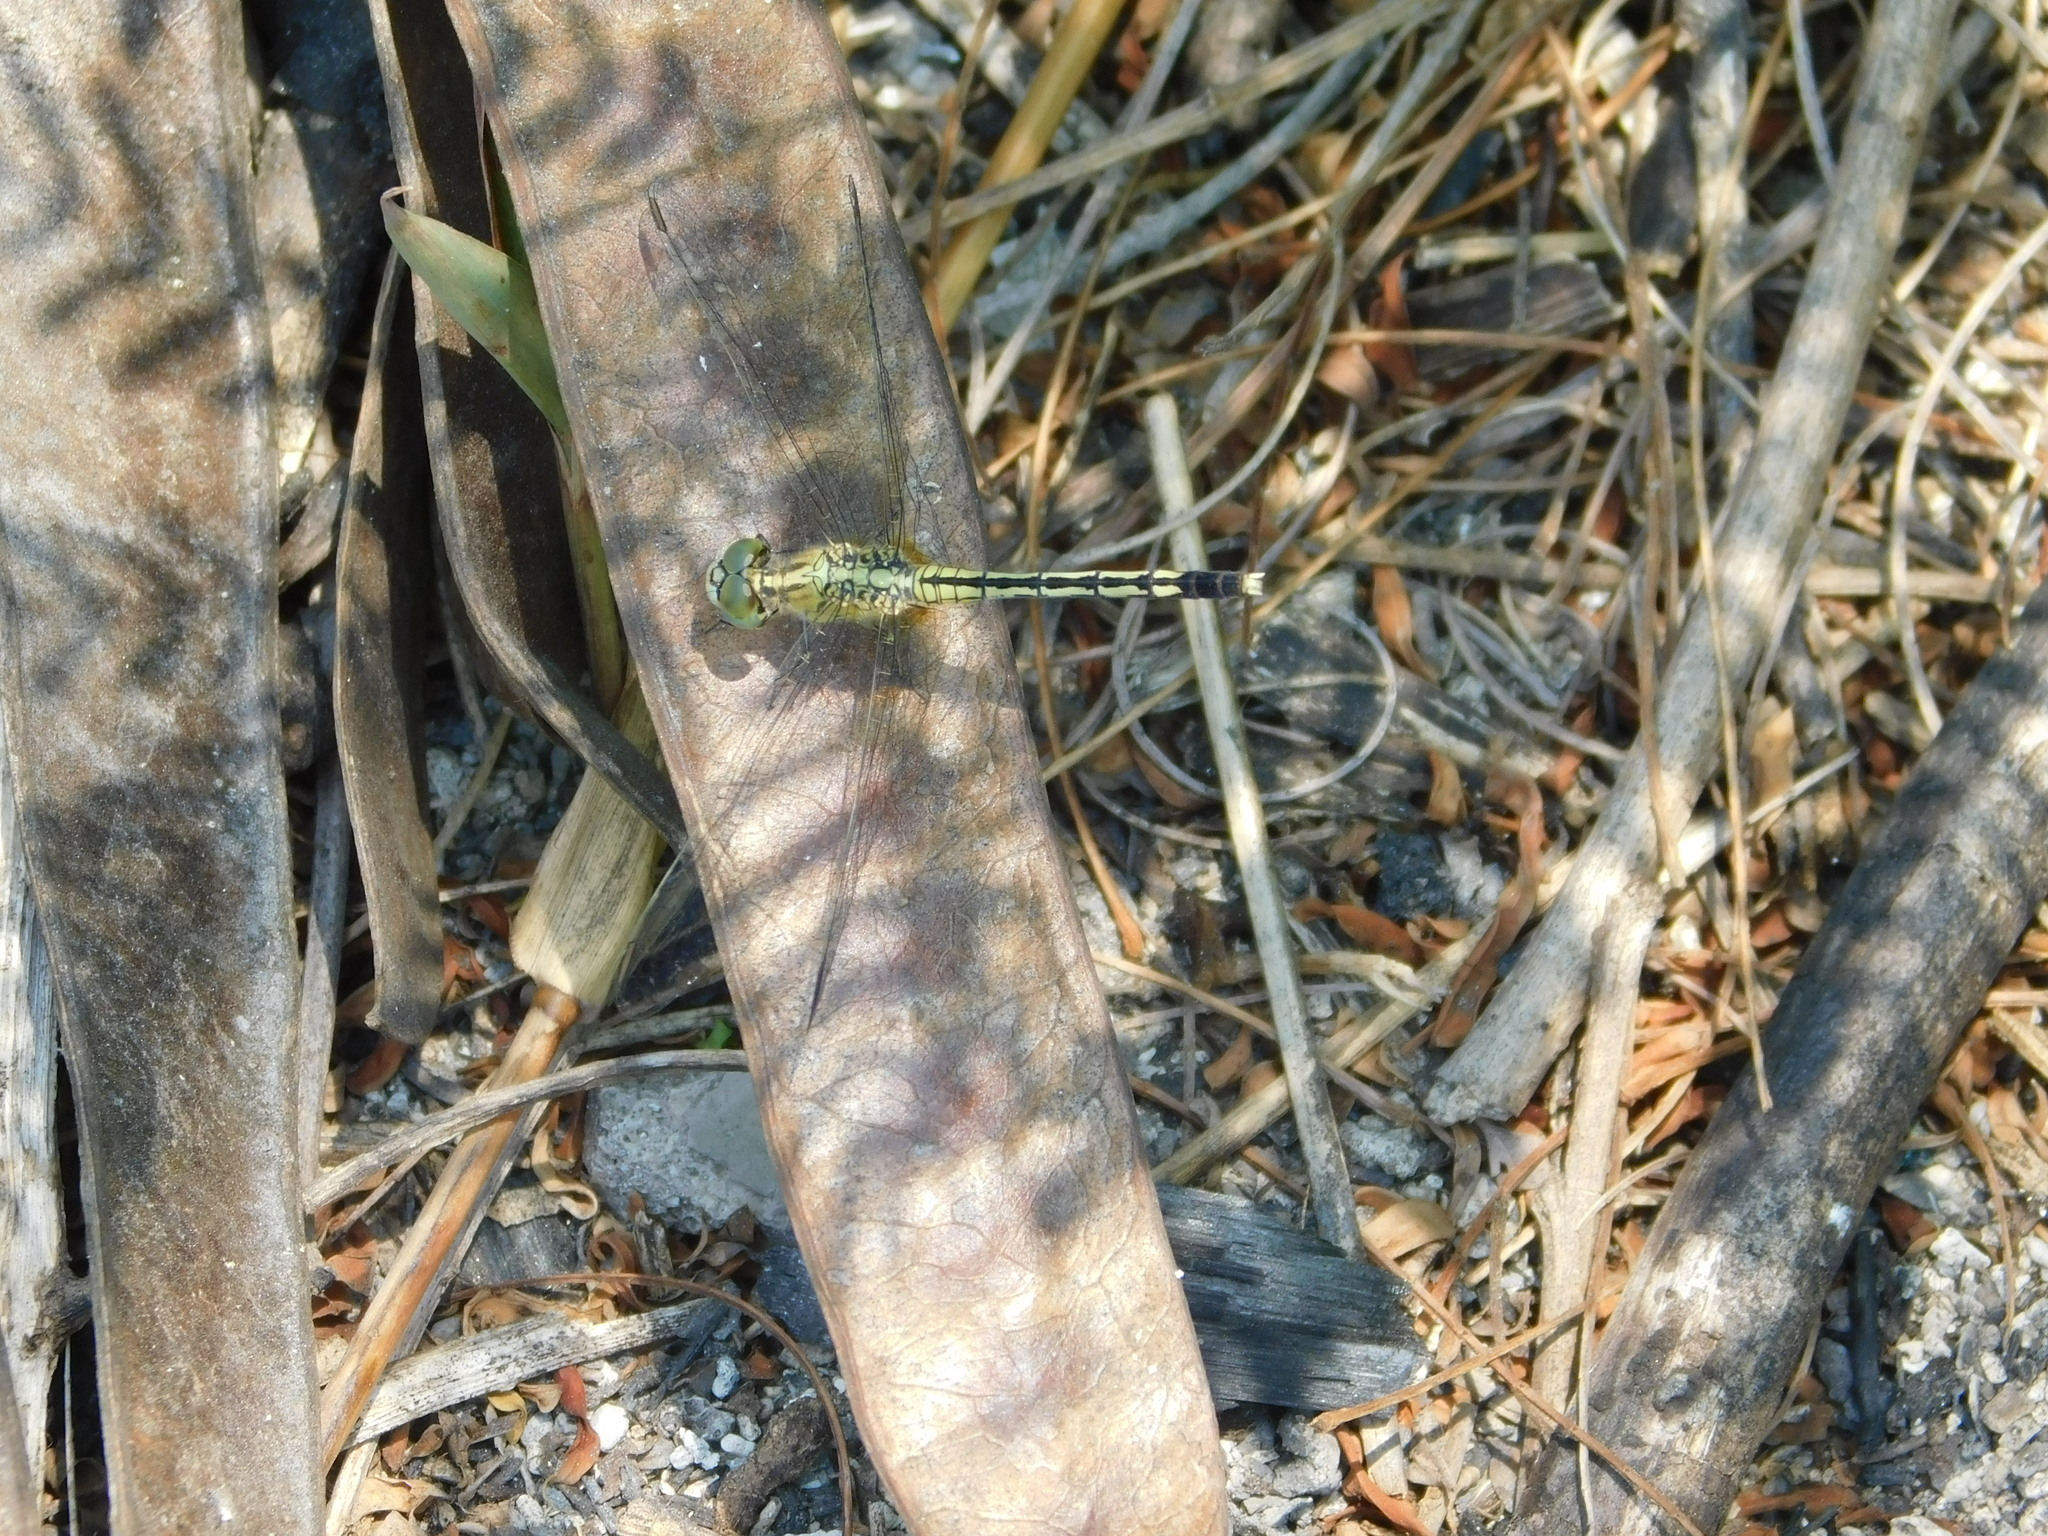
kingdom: Animalia
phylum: Arthropoda
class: Insecta
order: Odonata
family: Libellulidae
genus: Diplacodes
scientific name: Diplacodes trivialis
